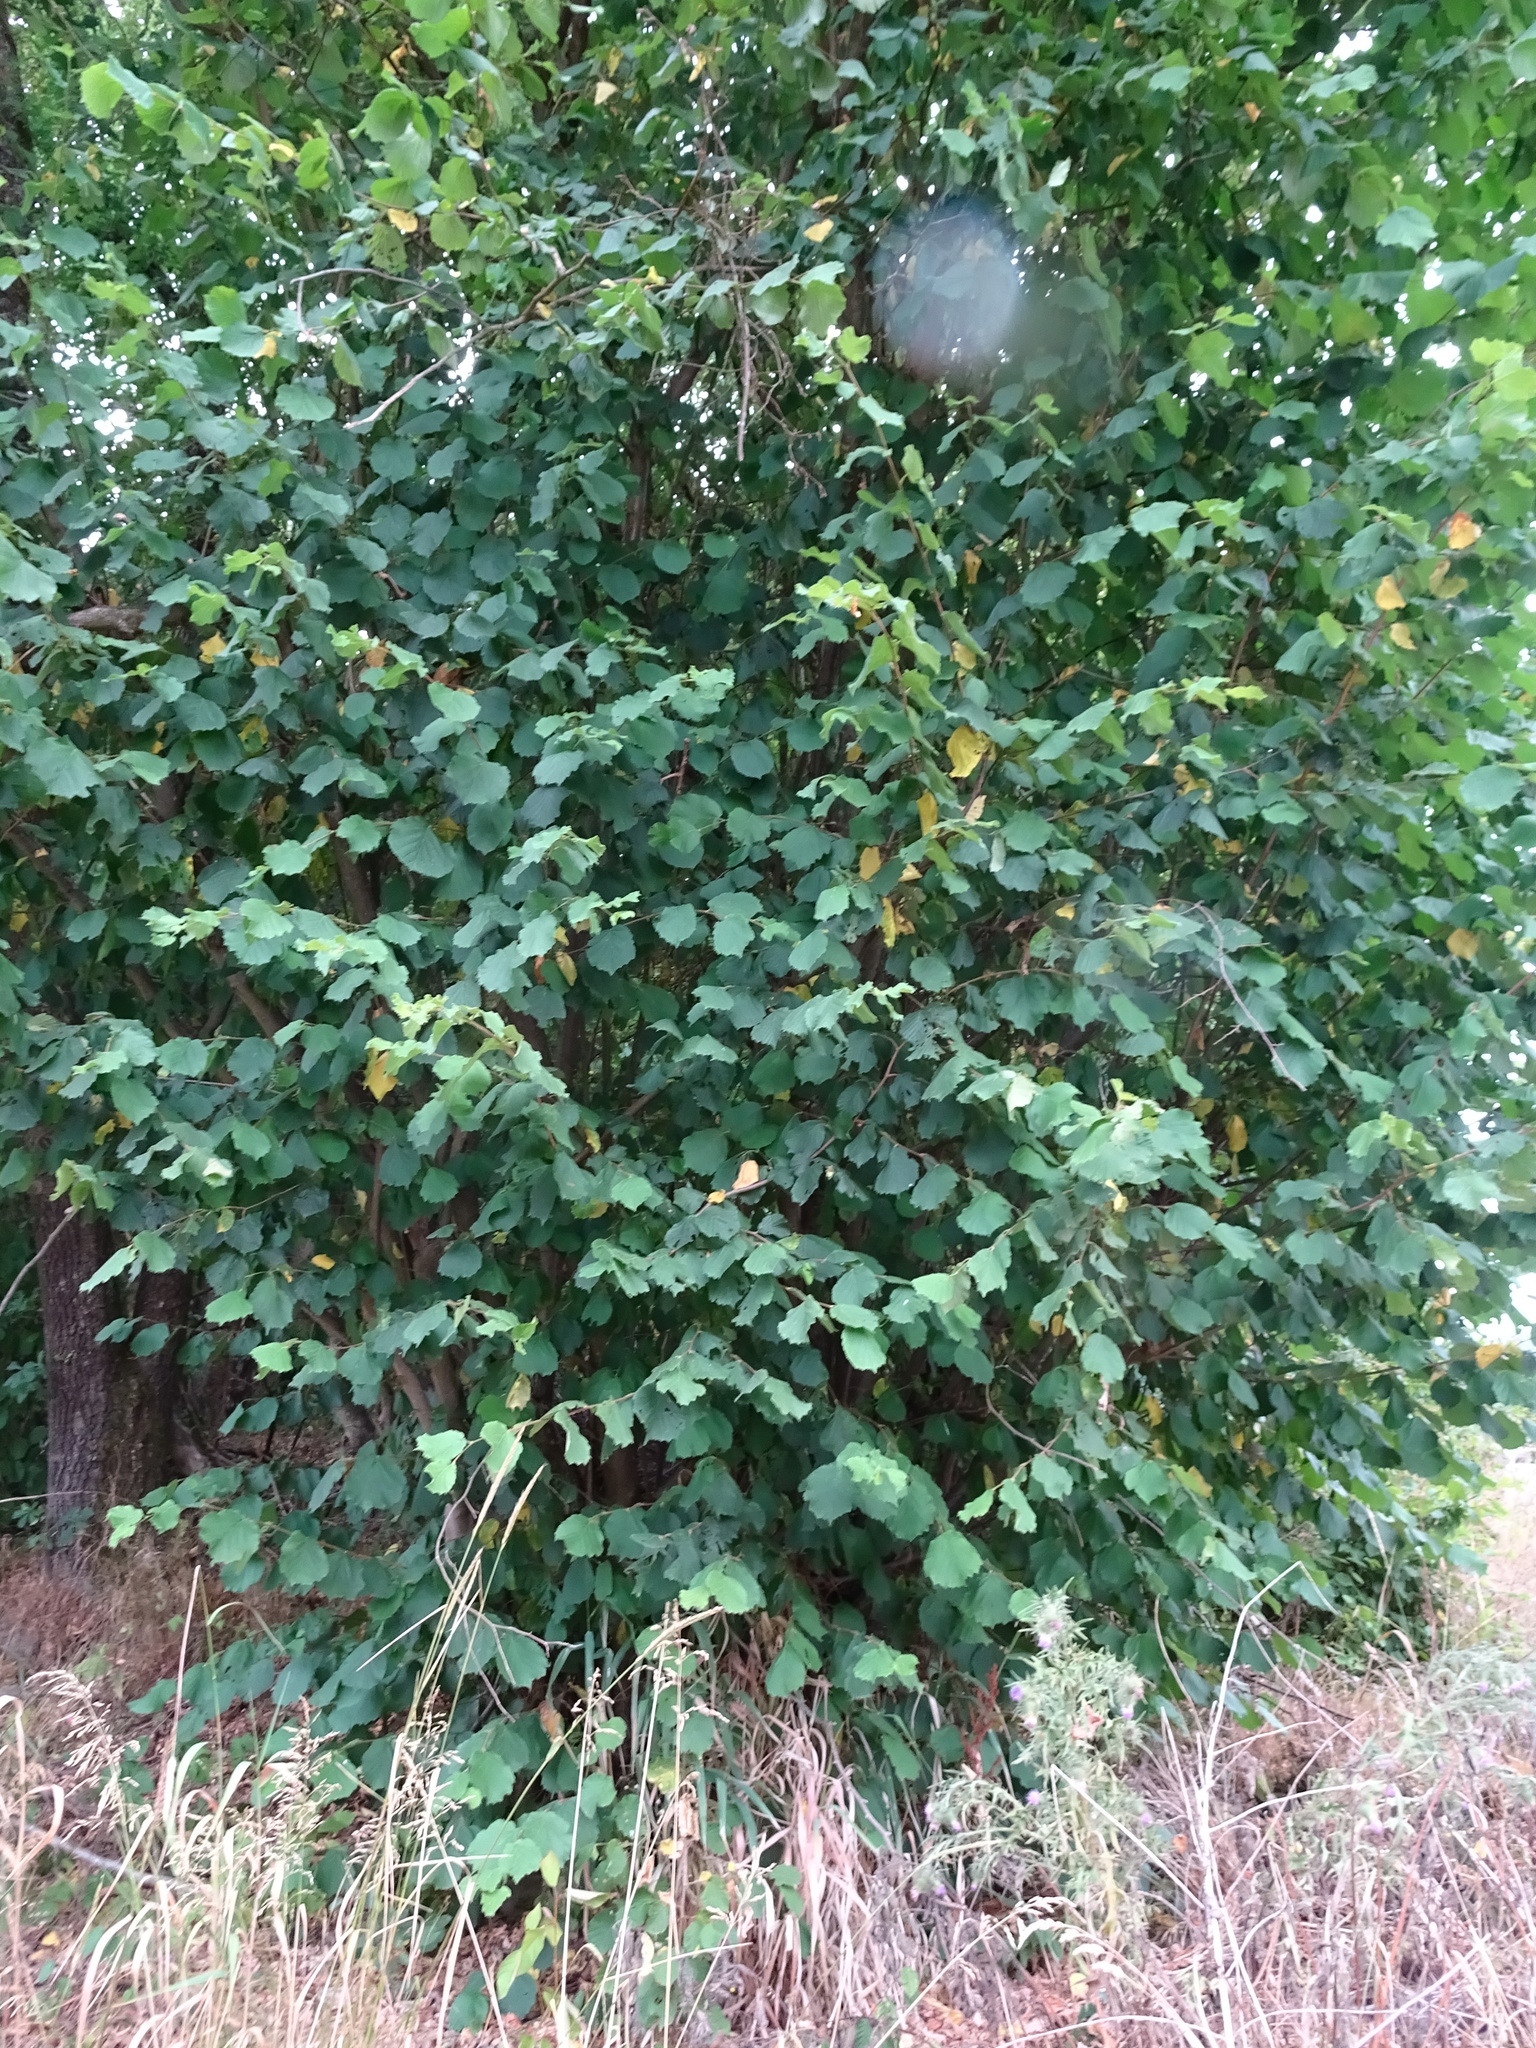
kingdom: Plantae
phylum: Tracheophyta
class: Magnoliopsida
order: Fagales
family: Betulaceae
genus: Corylus
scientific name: Corylus avellana
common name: European hazel
